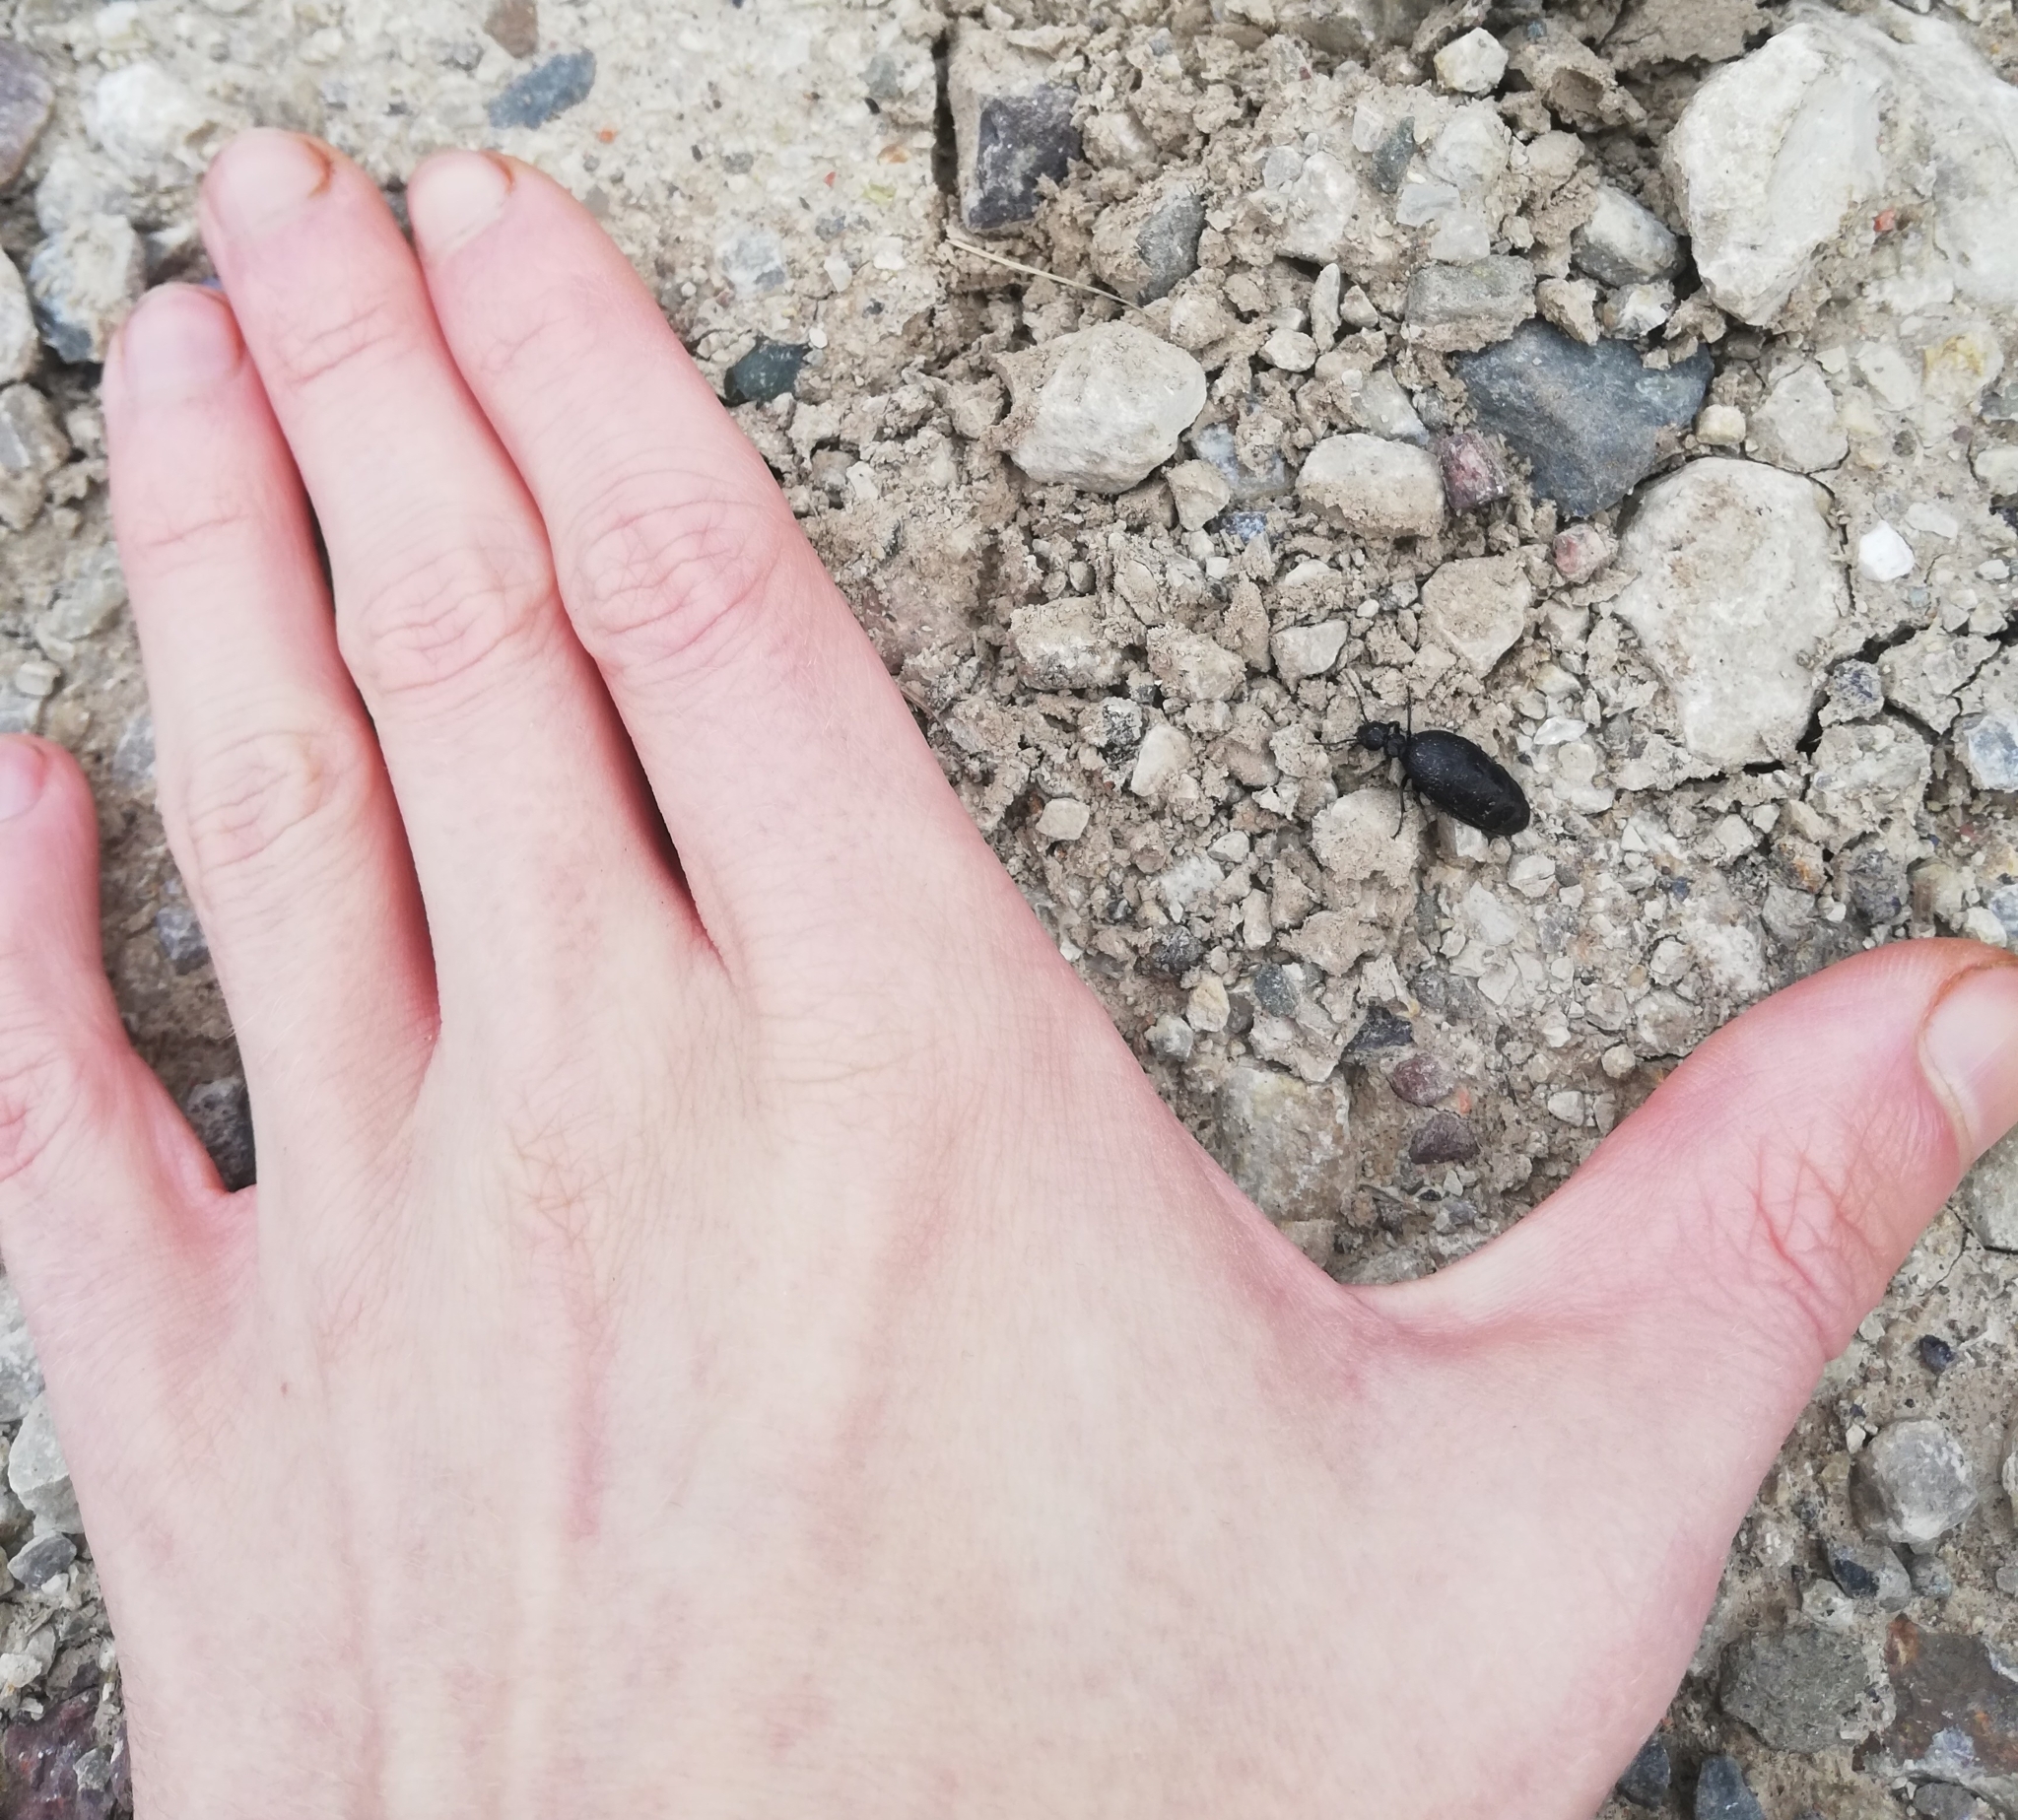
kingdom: Animalia
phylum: Arthropoda
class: Insecta
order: Coleoptera
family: Meloidae
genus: Meloe
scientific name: Meloe rugosus
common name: Rugged oil-beetle
